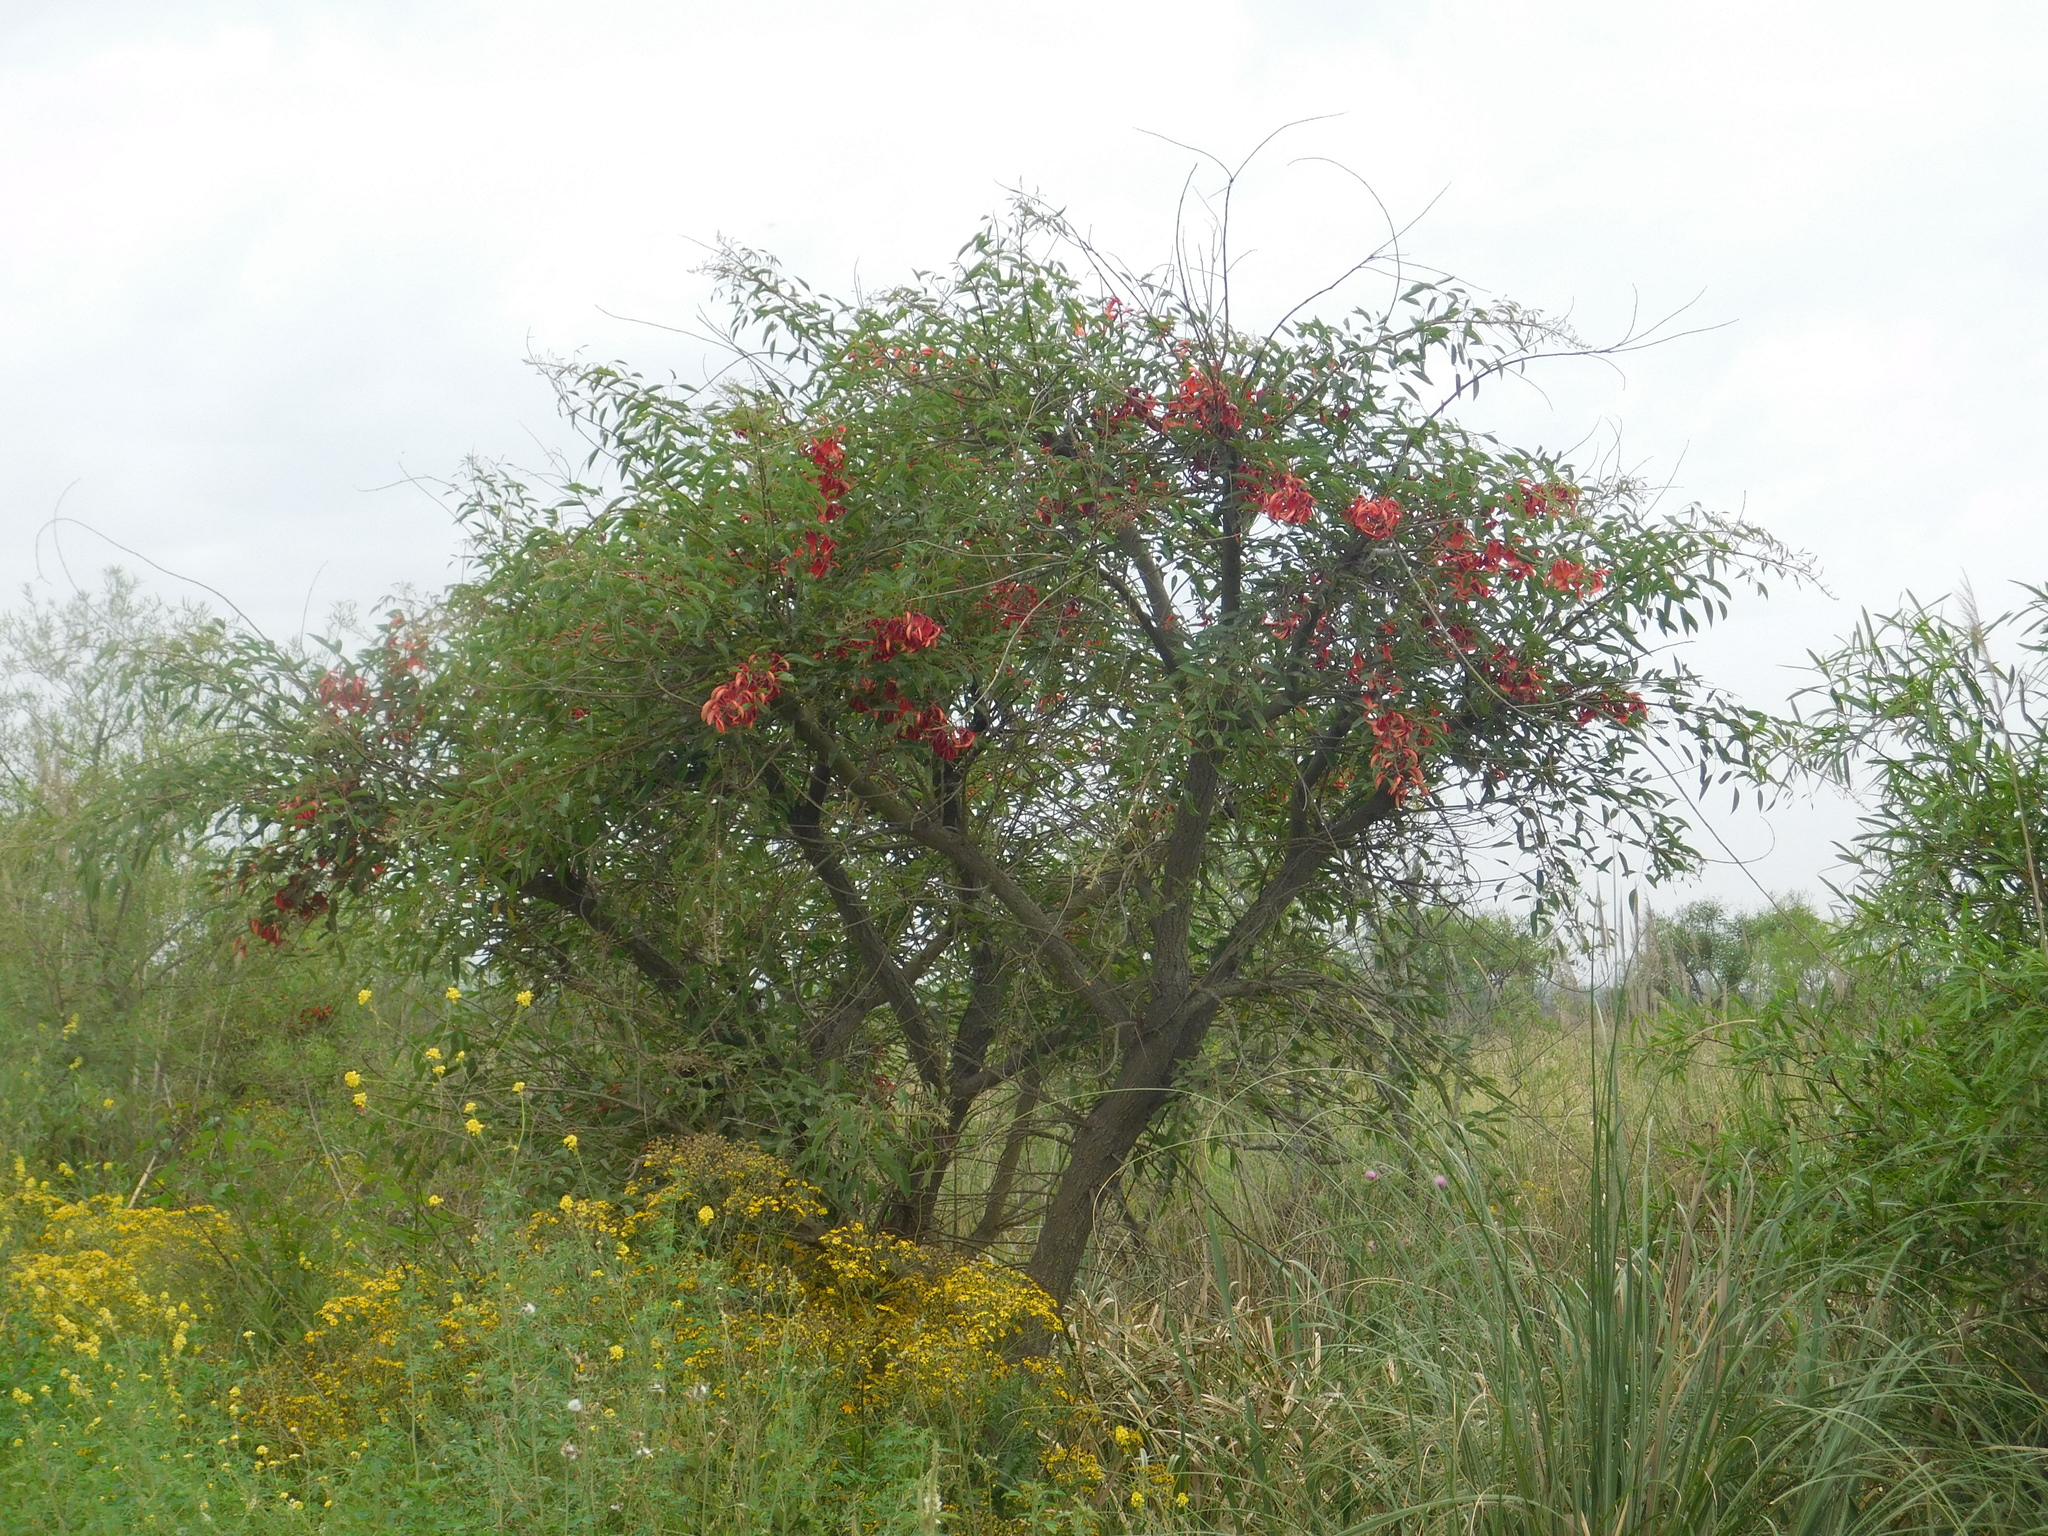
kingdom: Plantae
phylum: Tracheophyta
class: Magnoliopsida
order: Fabales
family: Fabaceae
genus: Erythrina
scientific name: Erythrina crista-galli
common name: Cockspur coral tree
